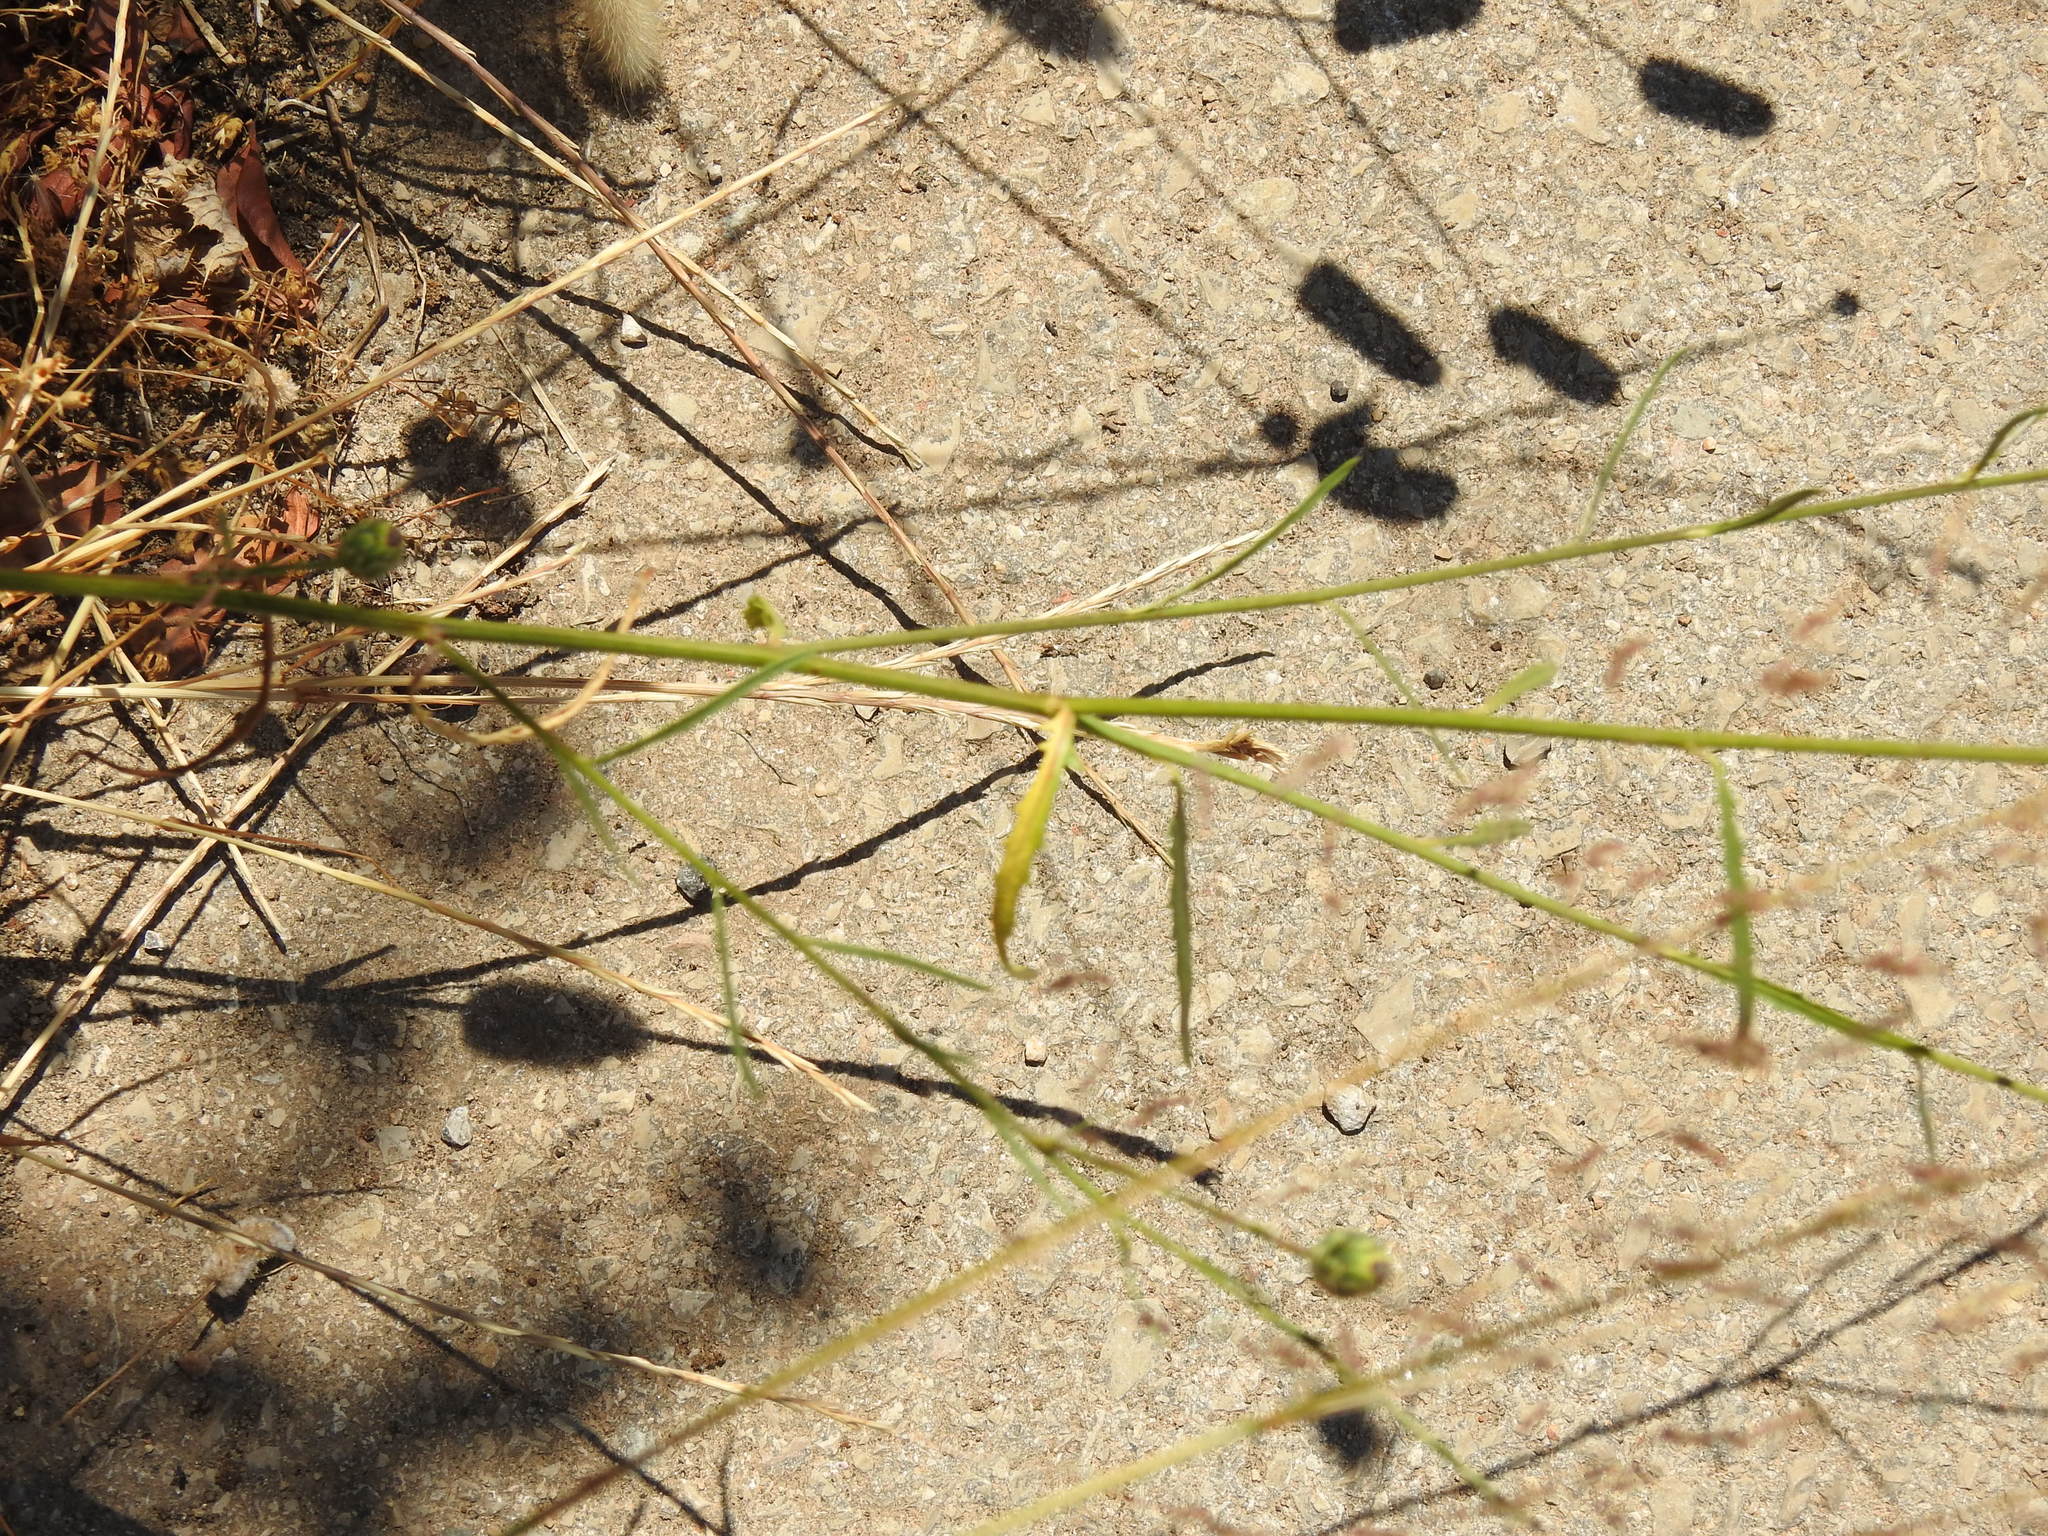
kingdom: Plantae
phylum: Tracheophyta
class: Magnoliopsida
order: Asterales
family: Asteraceae
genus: Mantisalca
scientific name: Mantisalca salmantica
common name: Dagger flower
